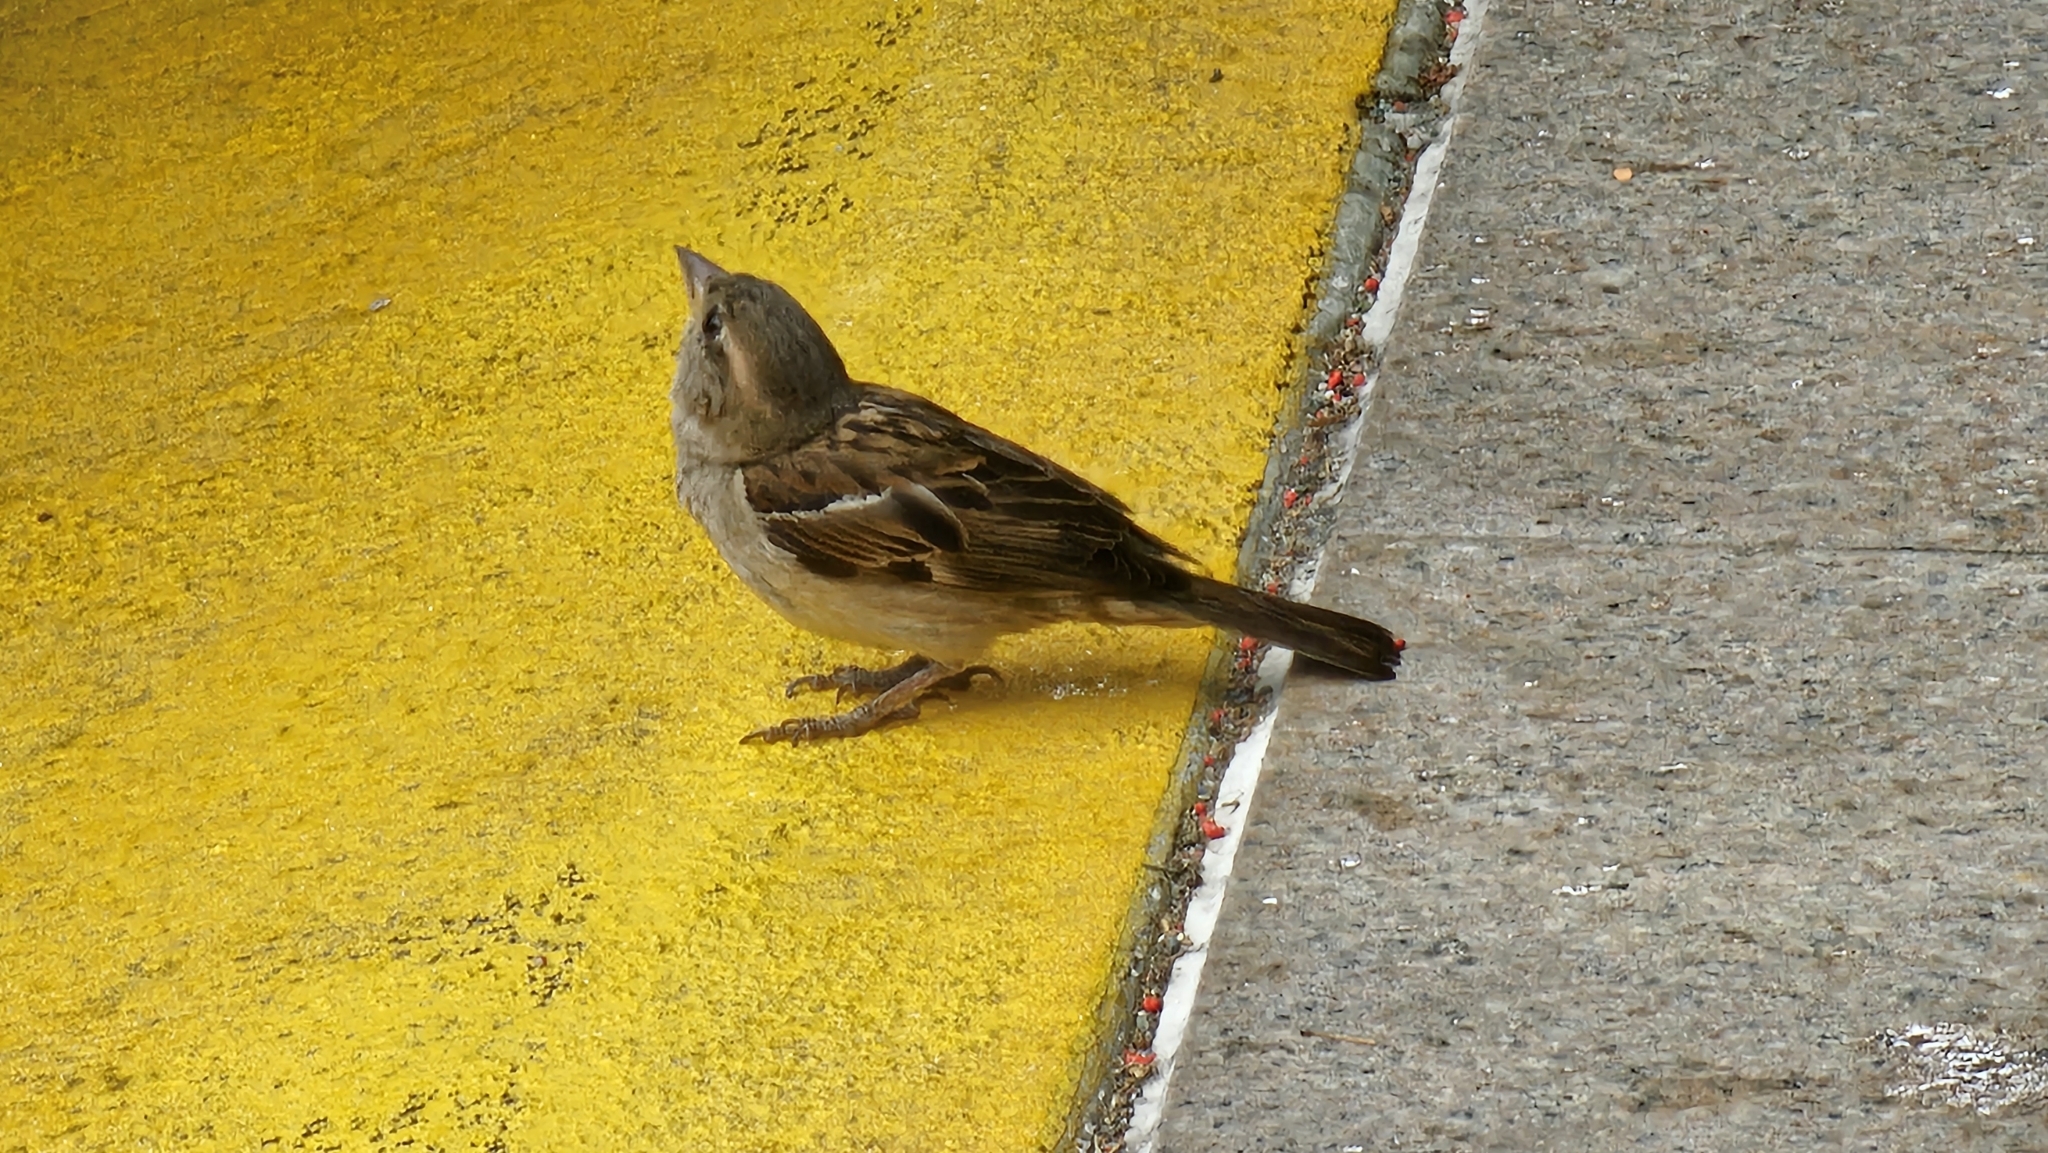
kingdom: Animalia
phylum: Chordata
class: Aves
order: Passeriformes
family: Passeridae
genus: Passer
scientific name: Passer domesticus
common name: House sparrow
